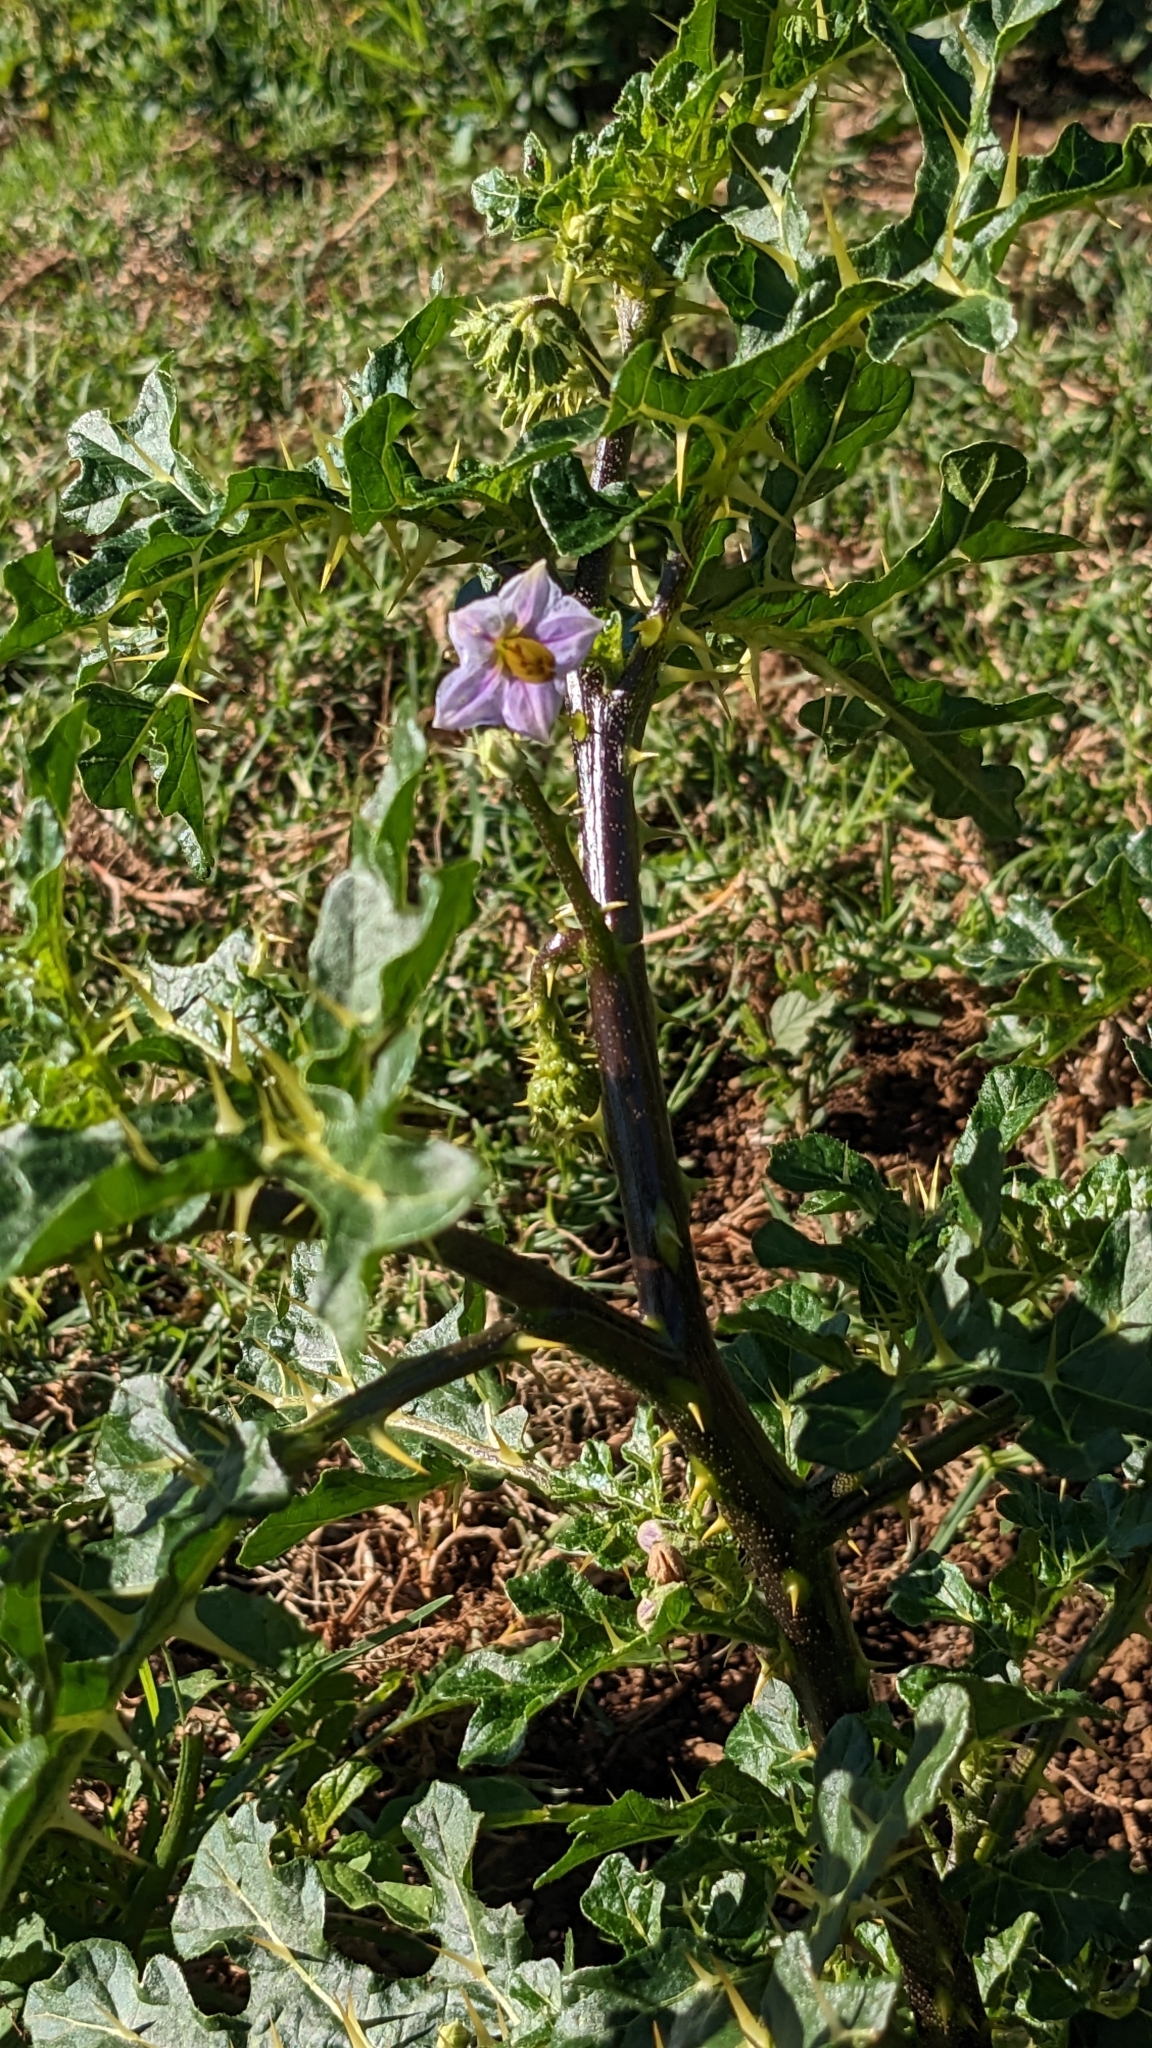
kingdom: Plantae
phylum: Tracheophyta
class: Magnoliopsida
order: Solanales
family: Solanaceae
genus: Solanum
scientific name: Solanum linnaeanum
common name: Nightshade
